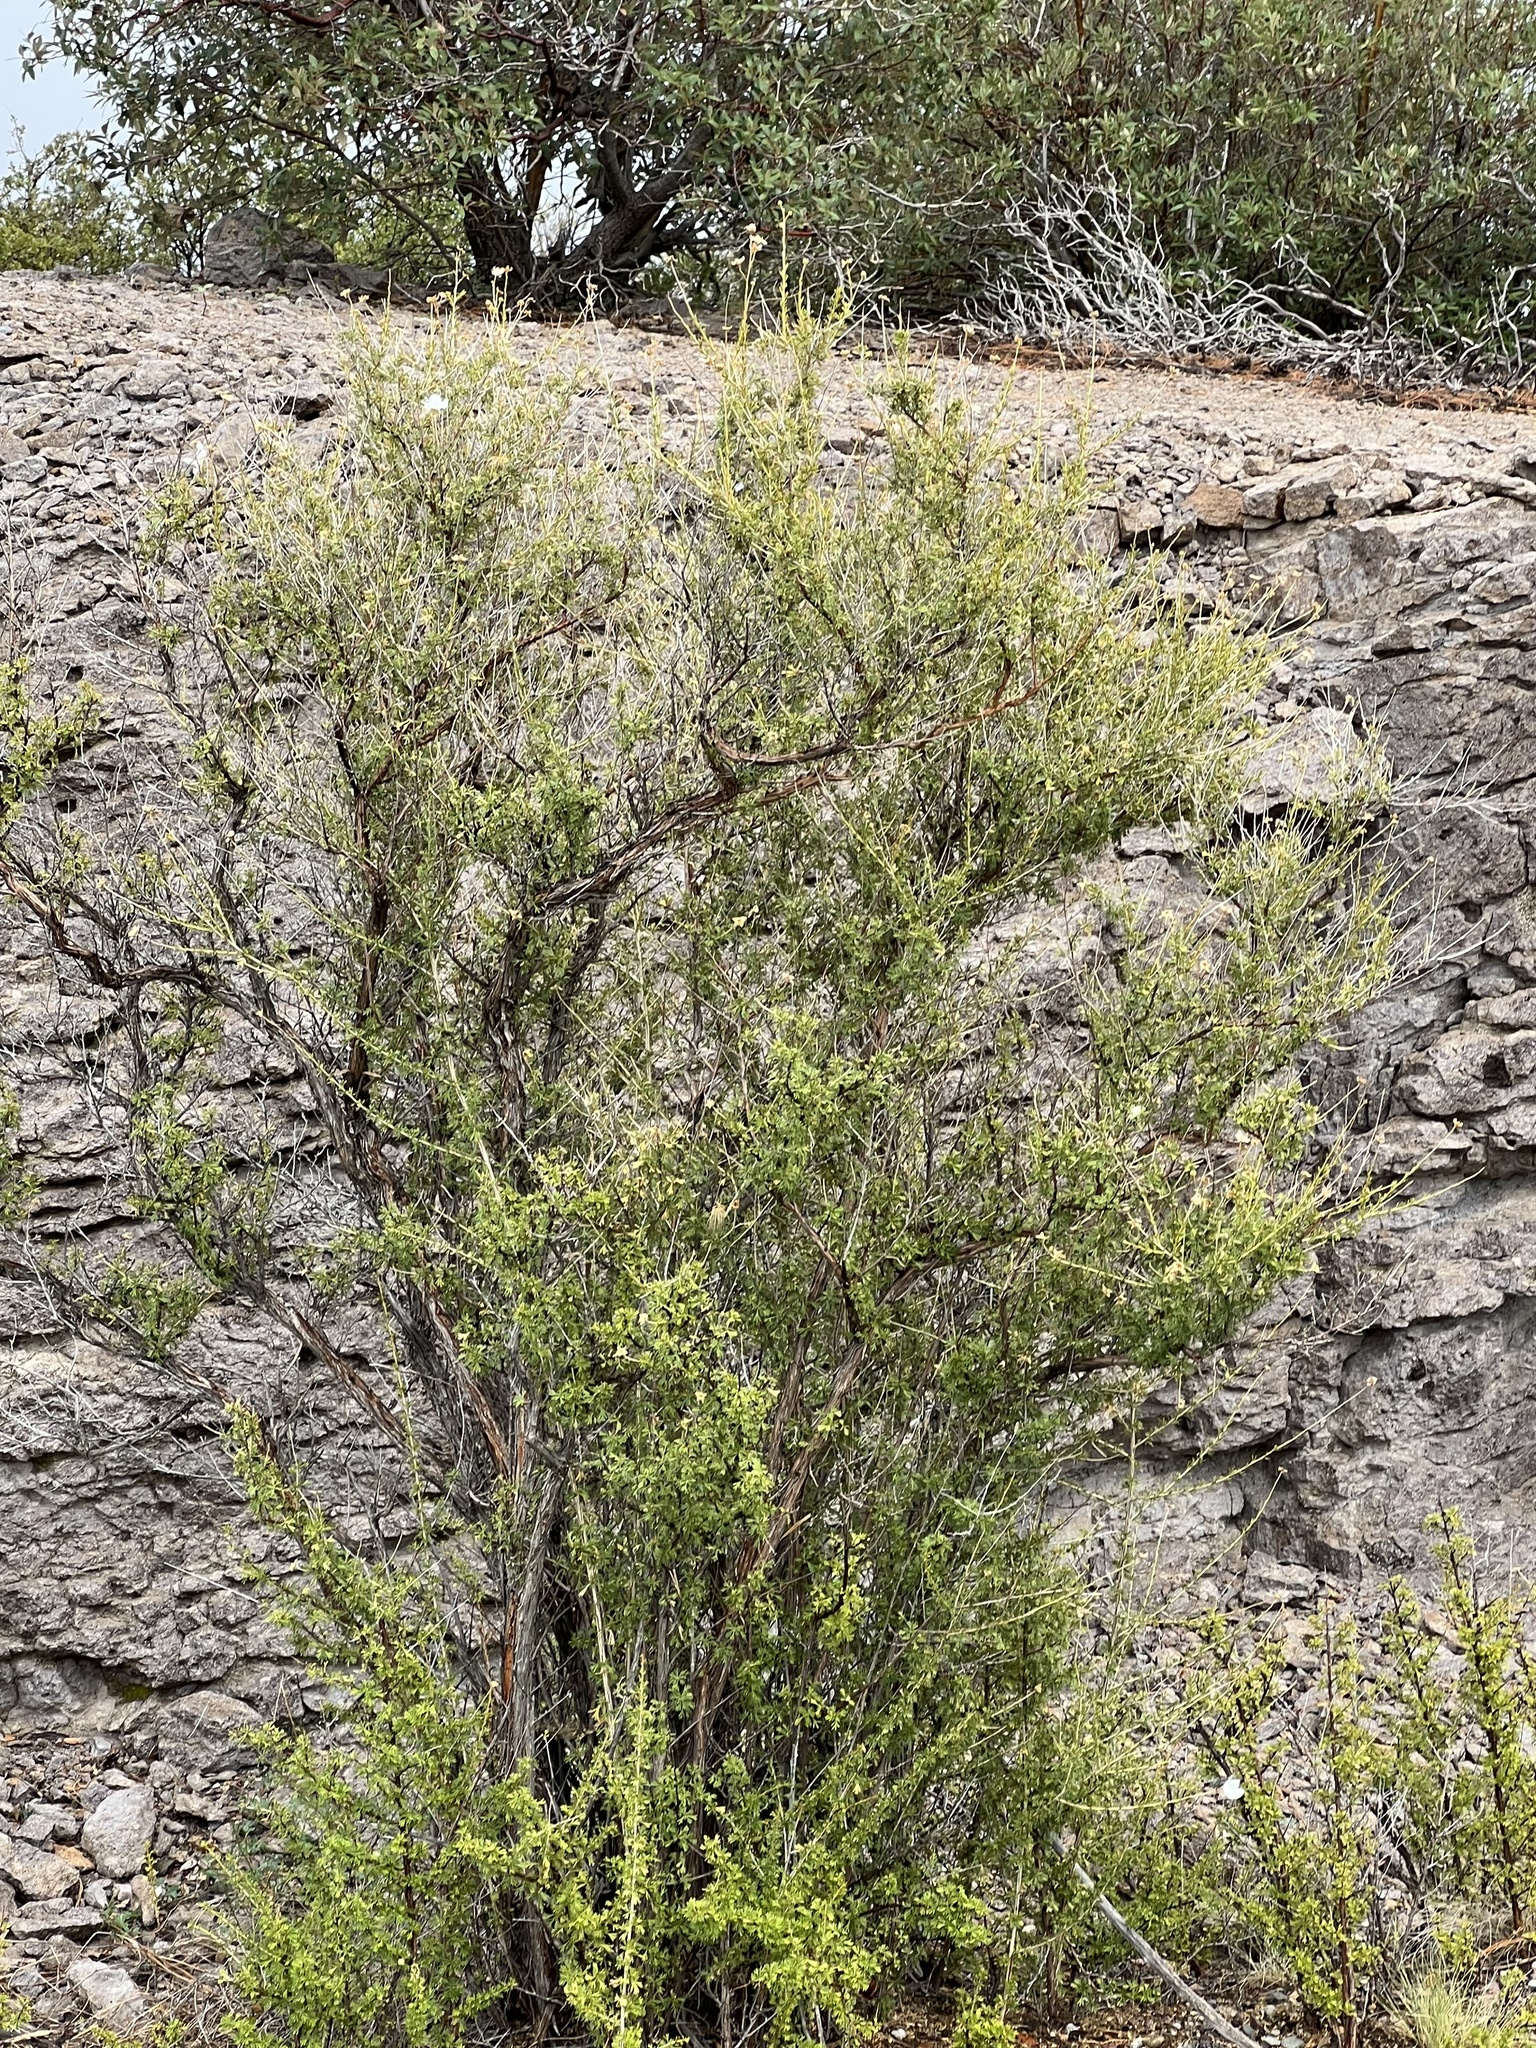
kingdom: Plantae
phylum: Tracheophyta
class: Magnoliopsida
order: Rosales
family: Rosaceae
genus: Fallugia
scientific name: Fallugia paradoxa
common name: Apache-plume
